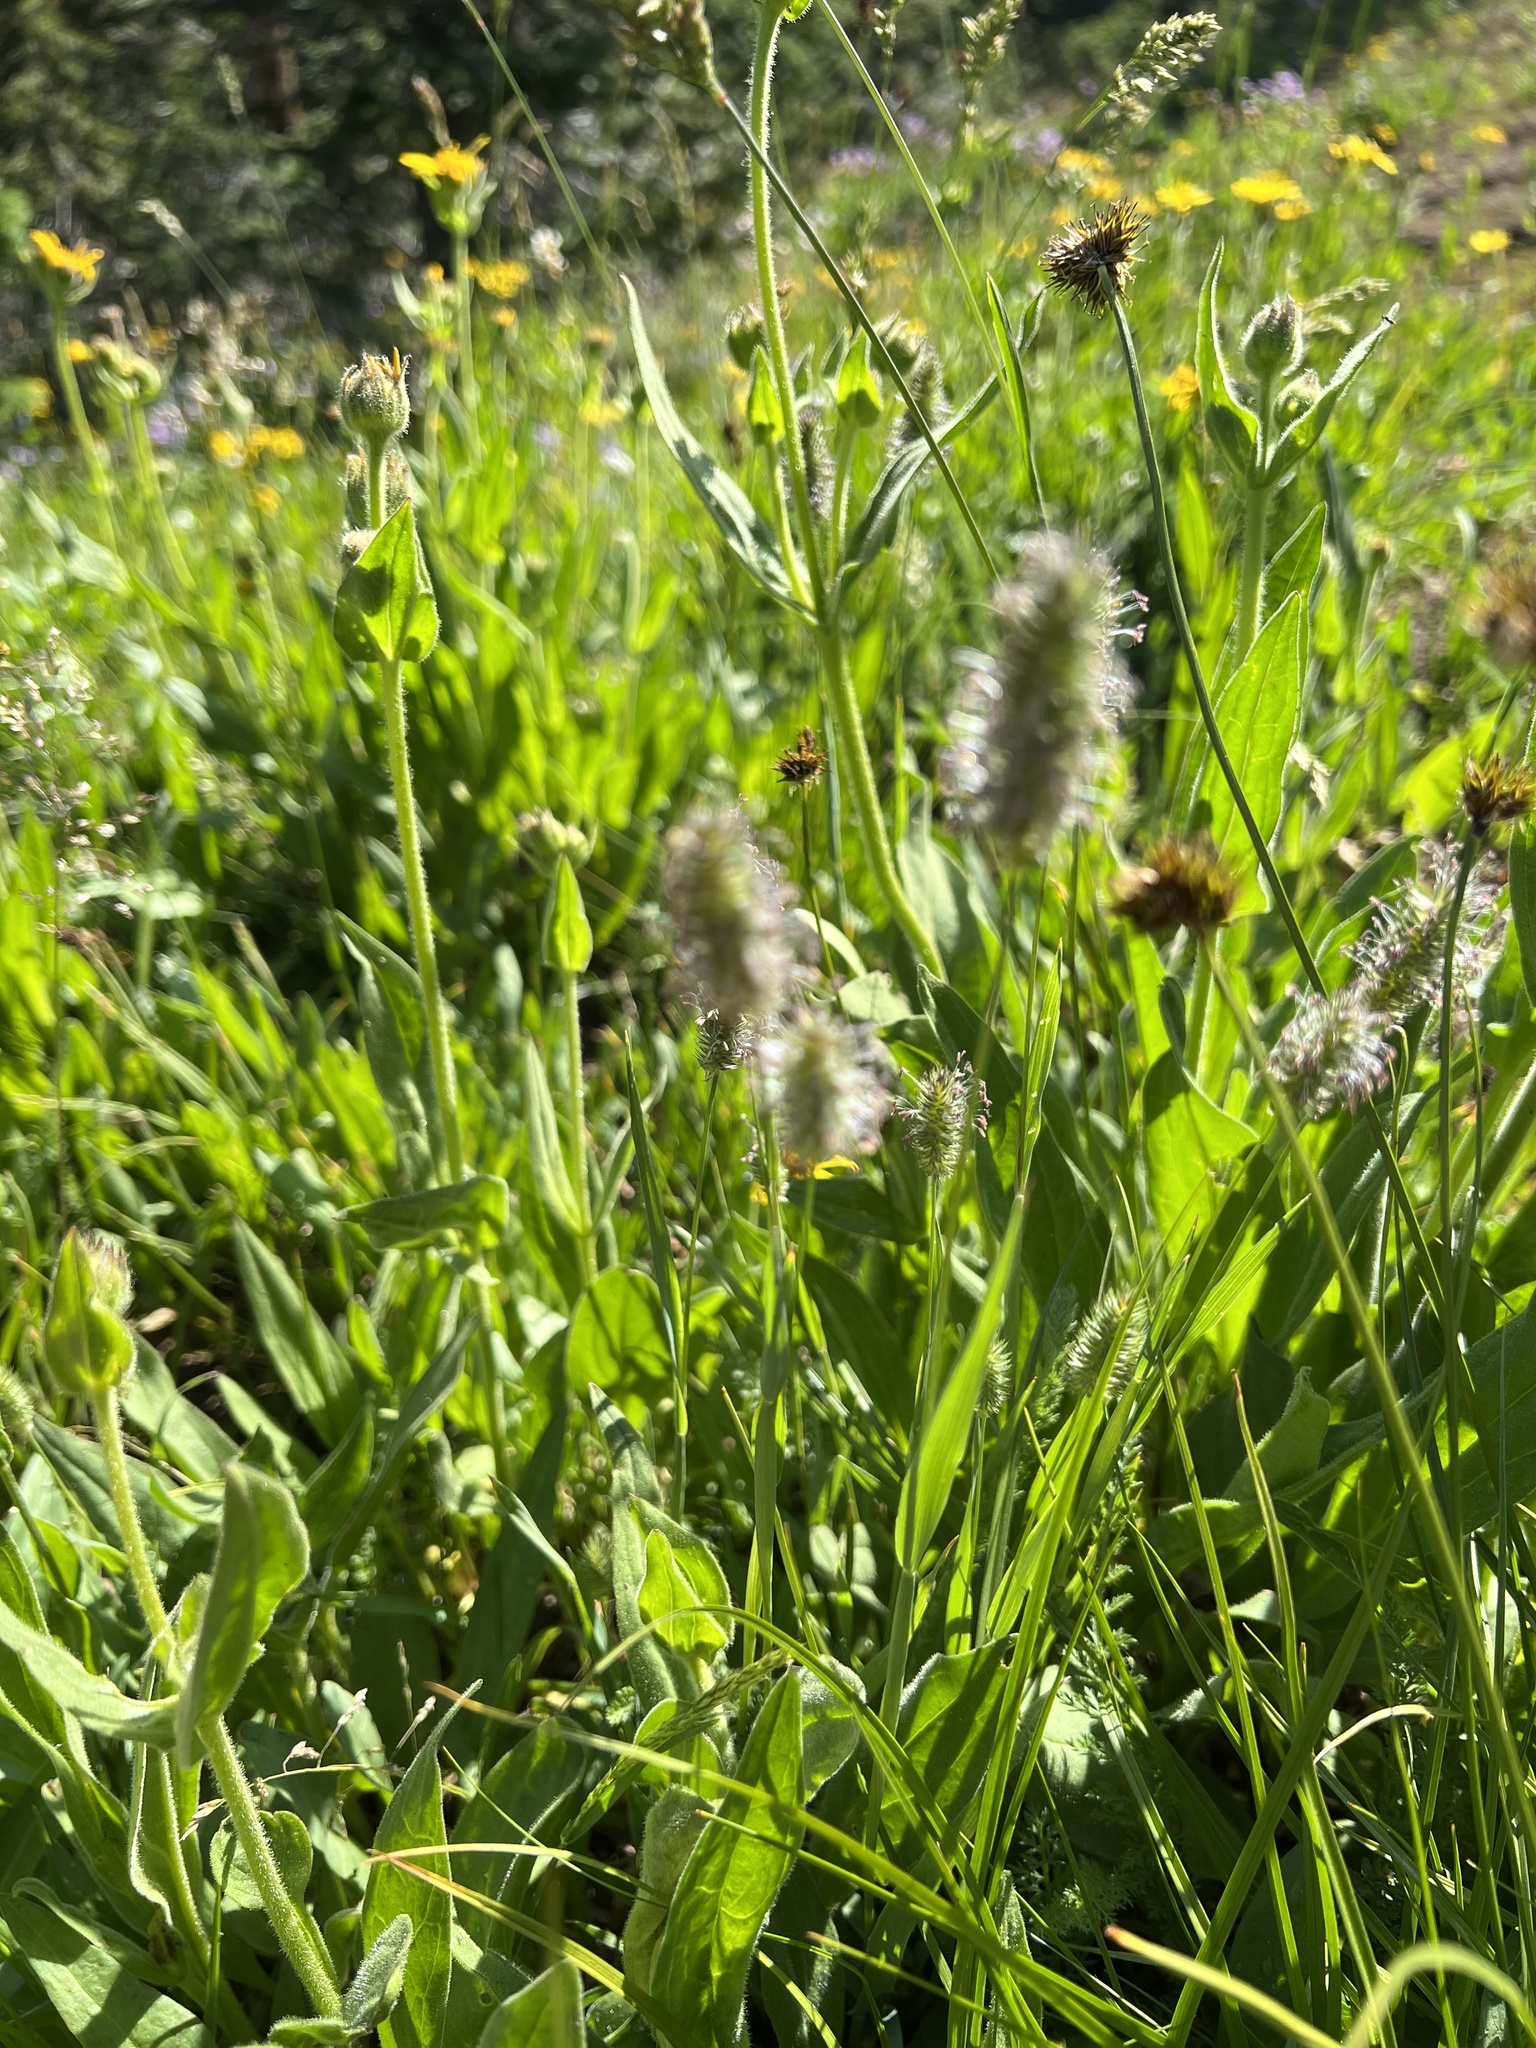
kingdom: Plantae
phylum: Tracheophyta
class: Liliopsida
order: Poales
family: Poaceae
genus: Phleum
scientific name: Phleum alpinum
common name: Alpine cat's-tail
